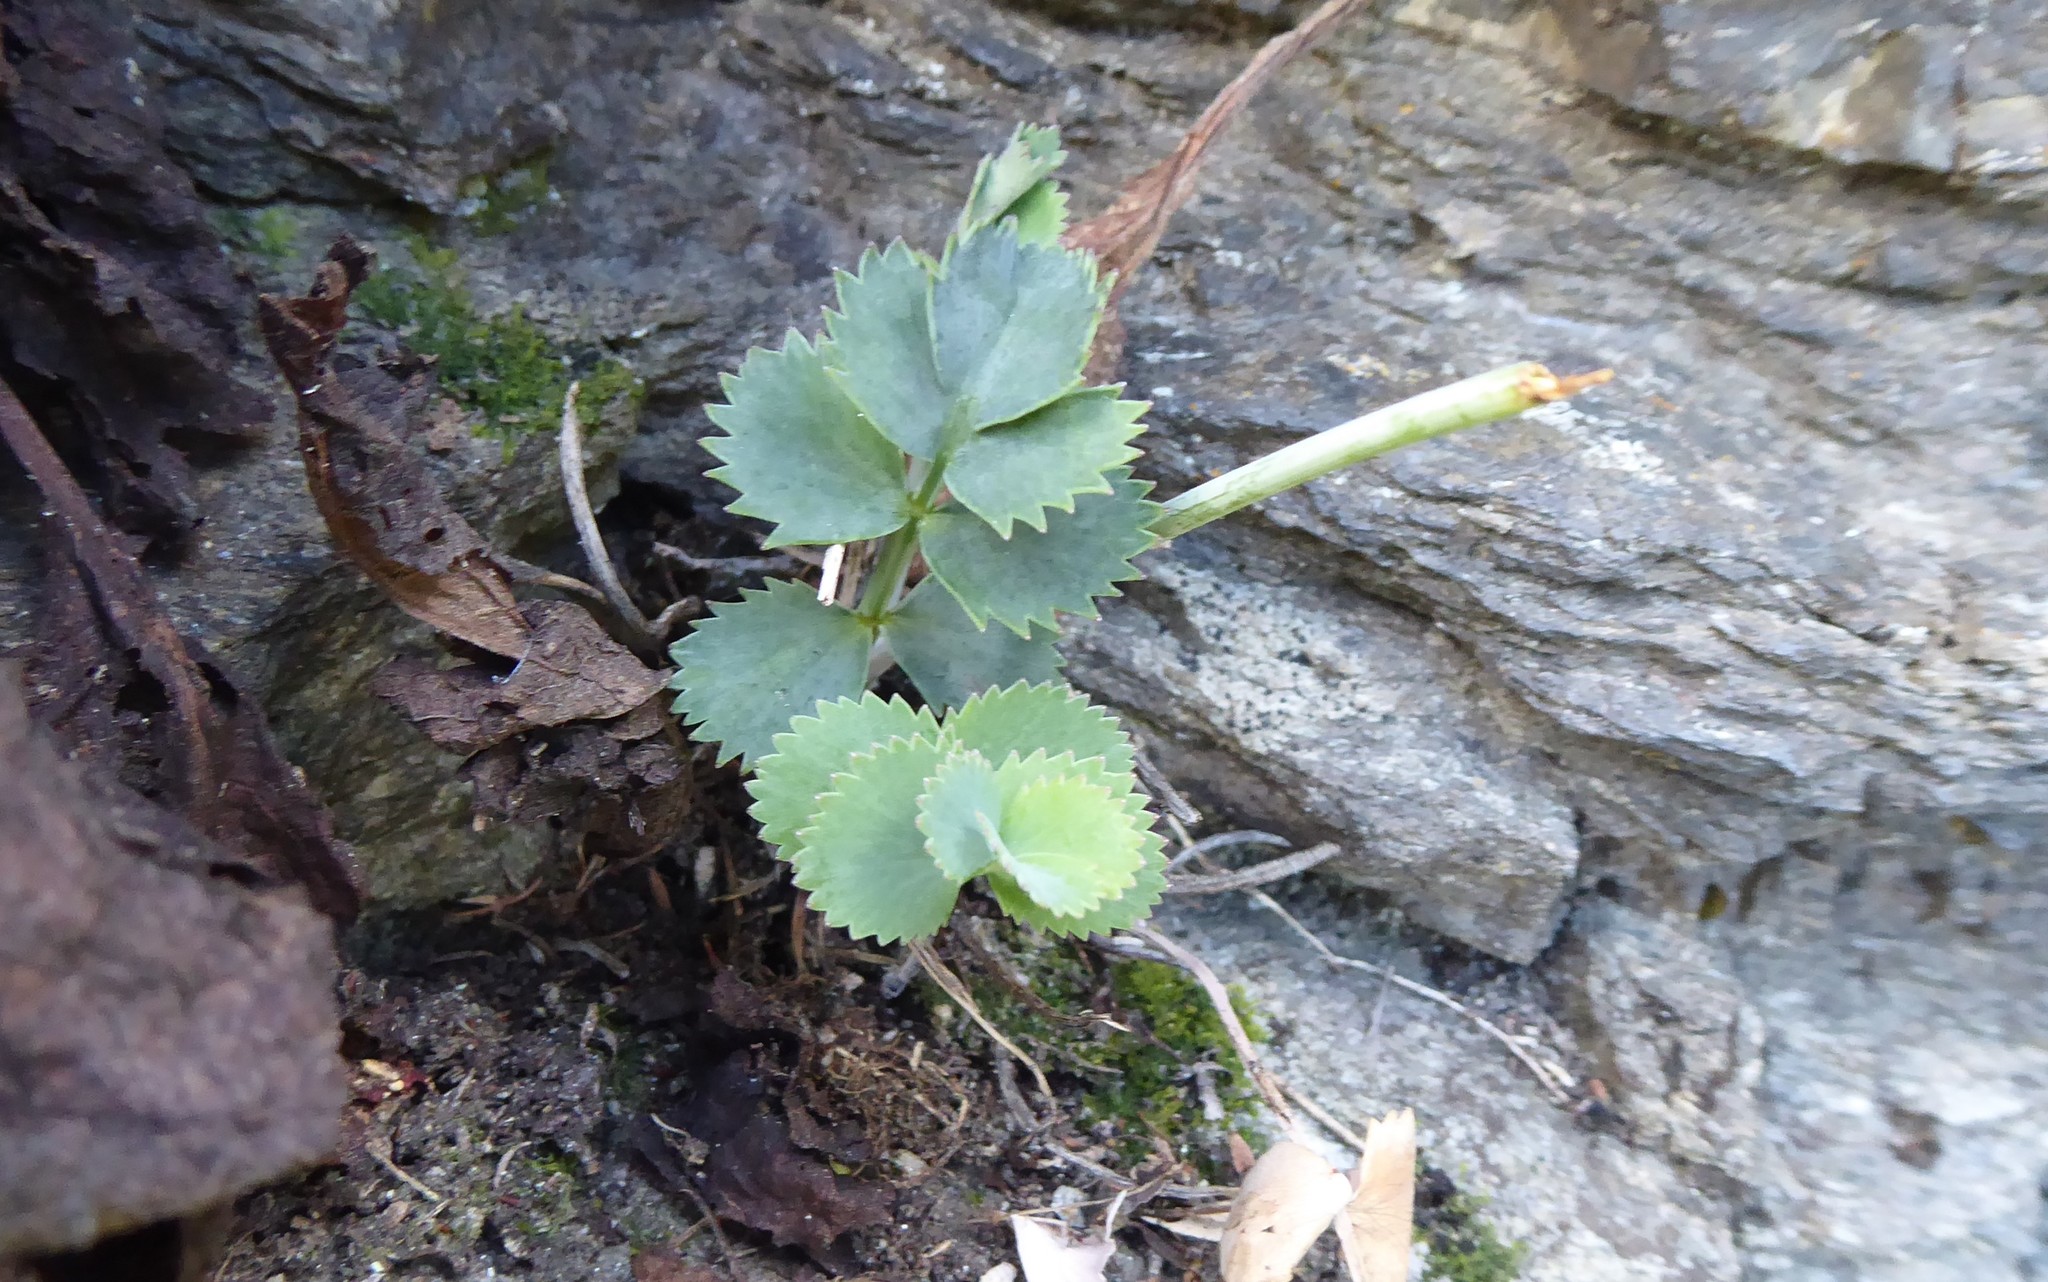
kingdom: Plantae
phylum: Tracheophyta
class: Magnoliopsida
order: Apiales
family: Apiaceae
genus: Gingidia
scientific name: Gingidia grisea
